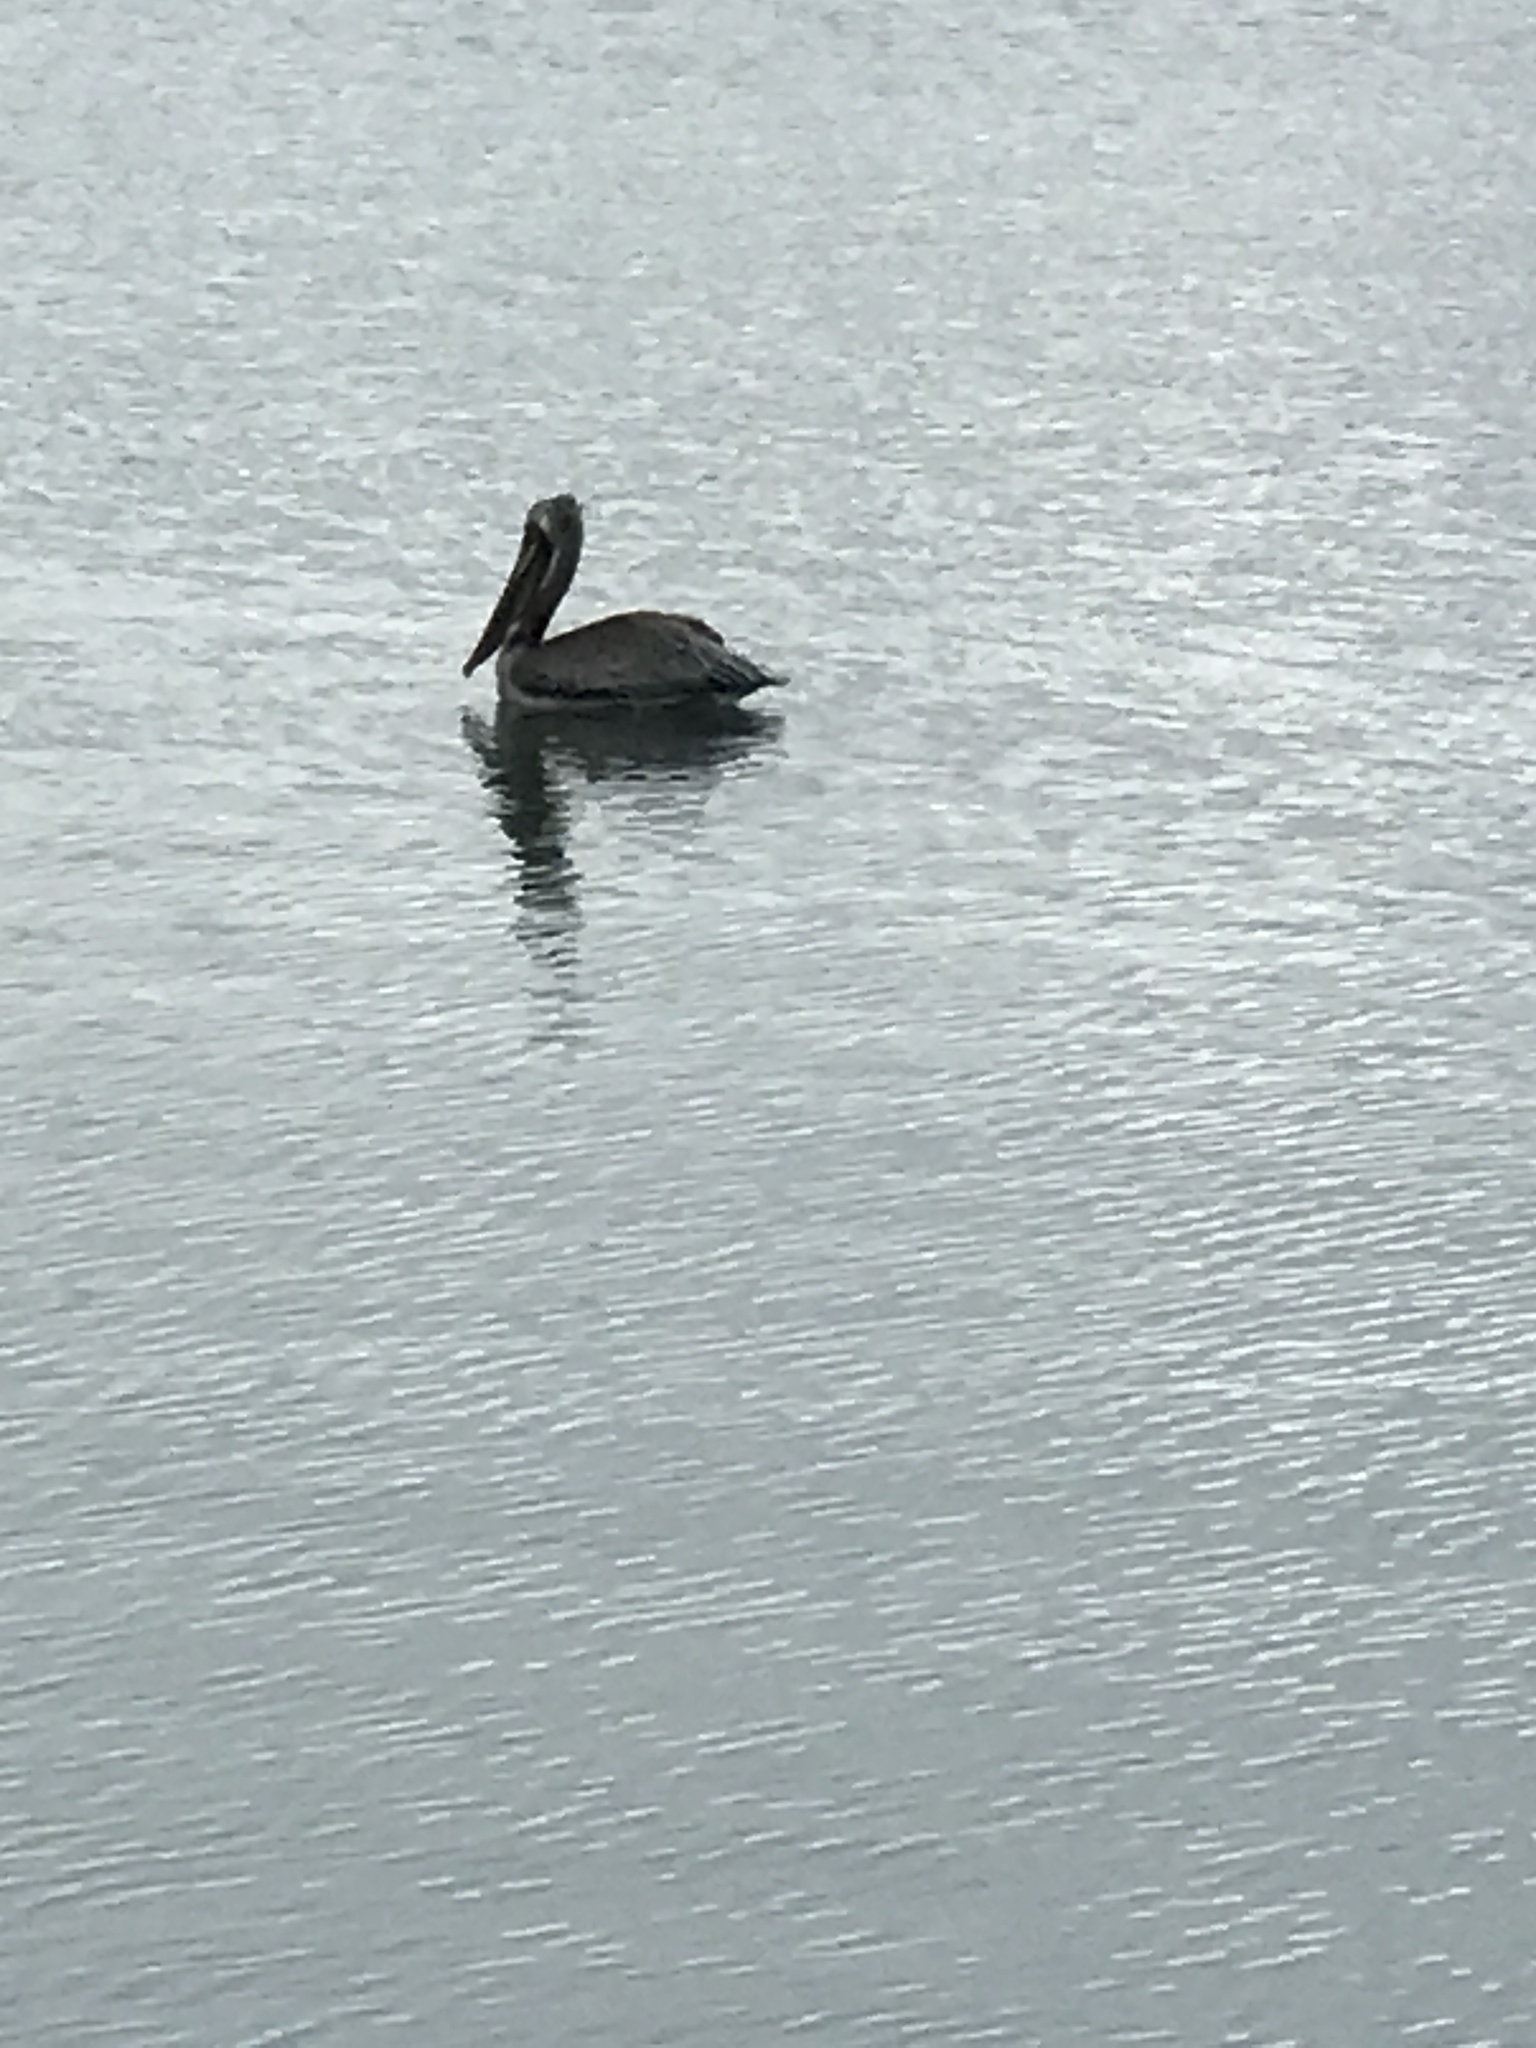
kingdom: Animalia
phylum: Chordata
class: Aves
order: Pelecaniformes
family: Pelecanidae
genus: Pelecanus
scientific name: Pelecanus occidentalis
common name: Brown pelican
